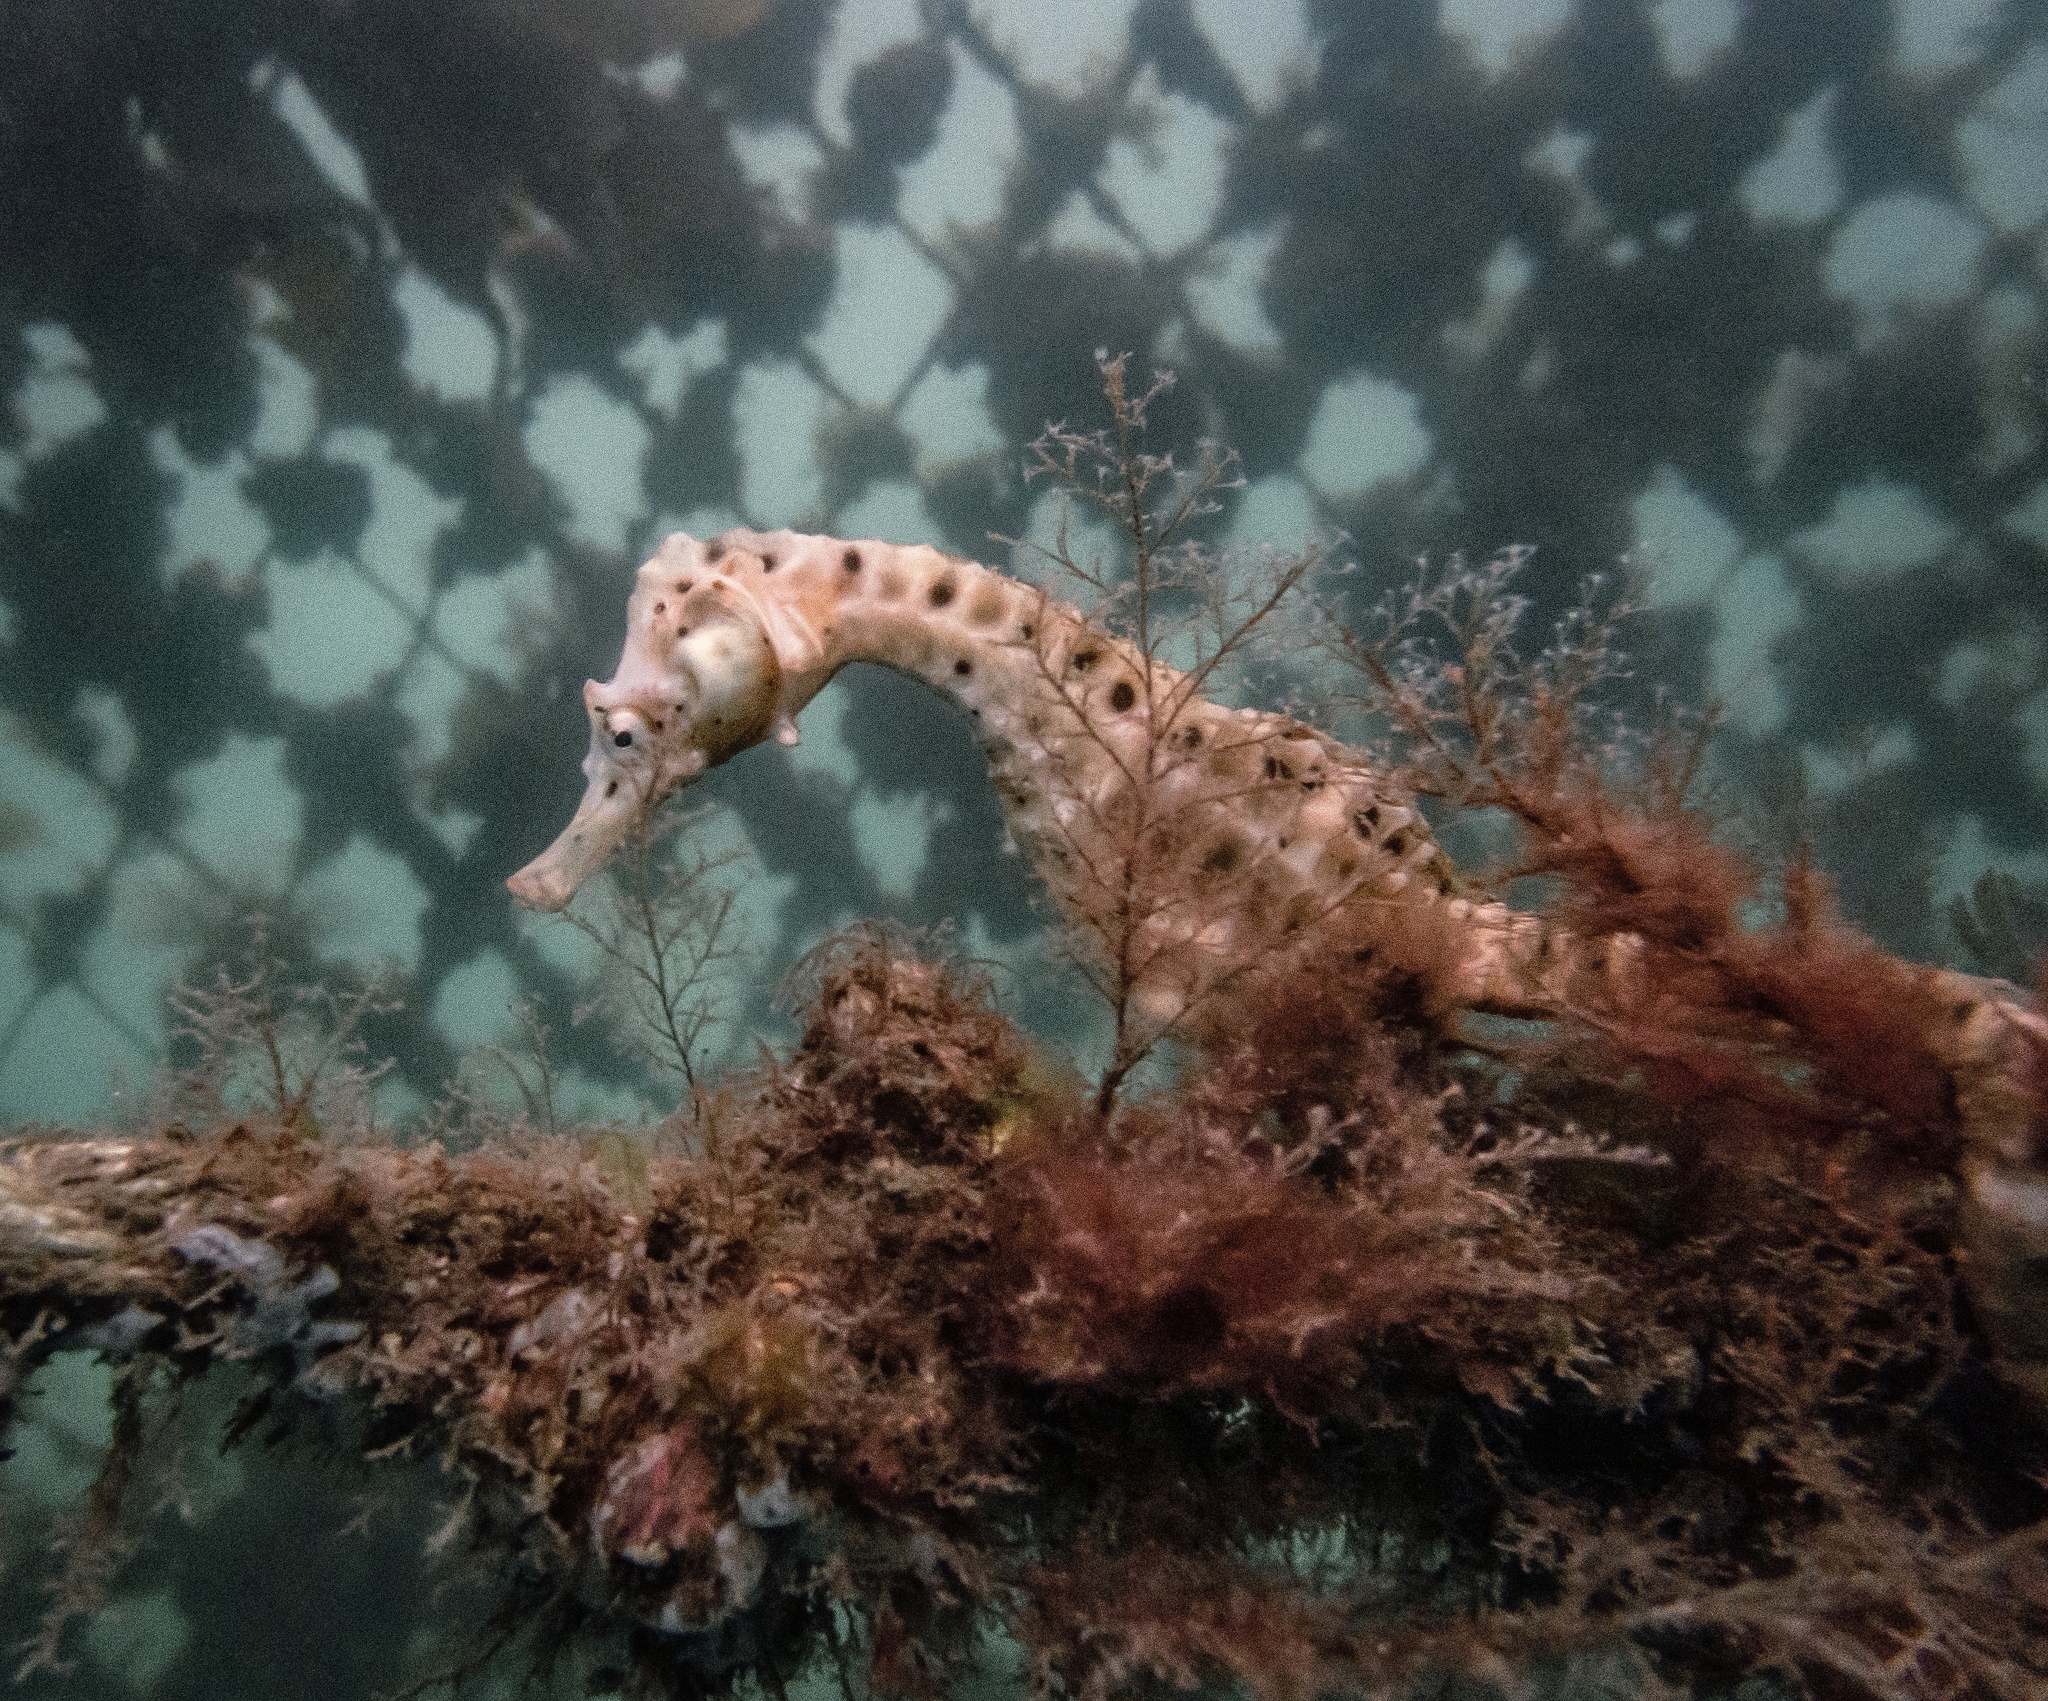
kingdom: Animalia
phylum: Chordata
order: Syngnathiformes
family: Syngnathidae
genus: Hippocampus
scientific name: Hippocampus abdominalis
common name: Big-belly seahorse
